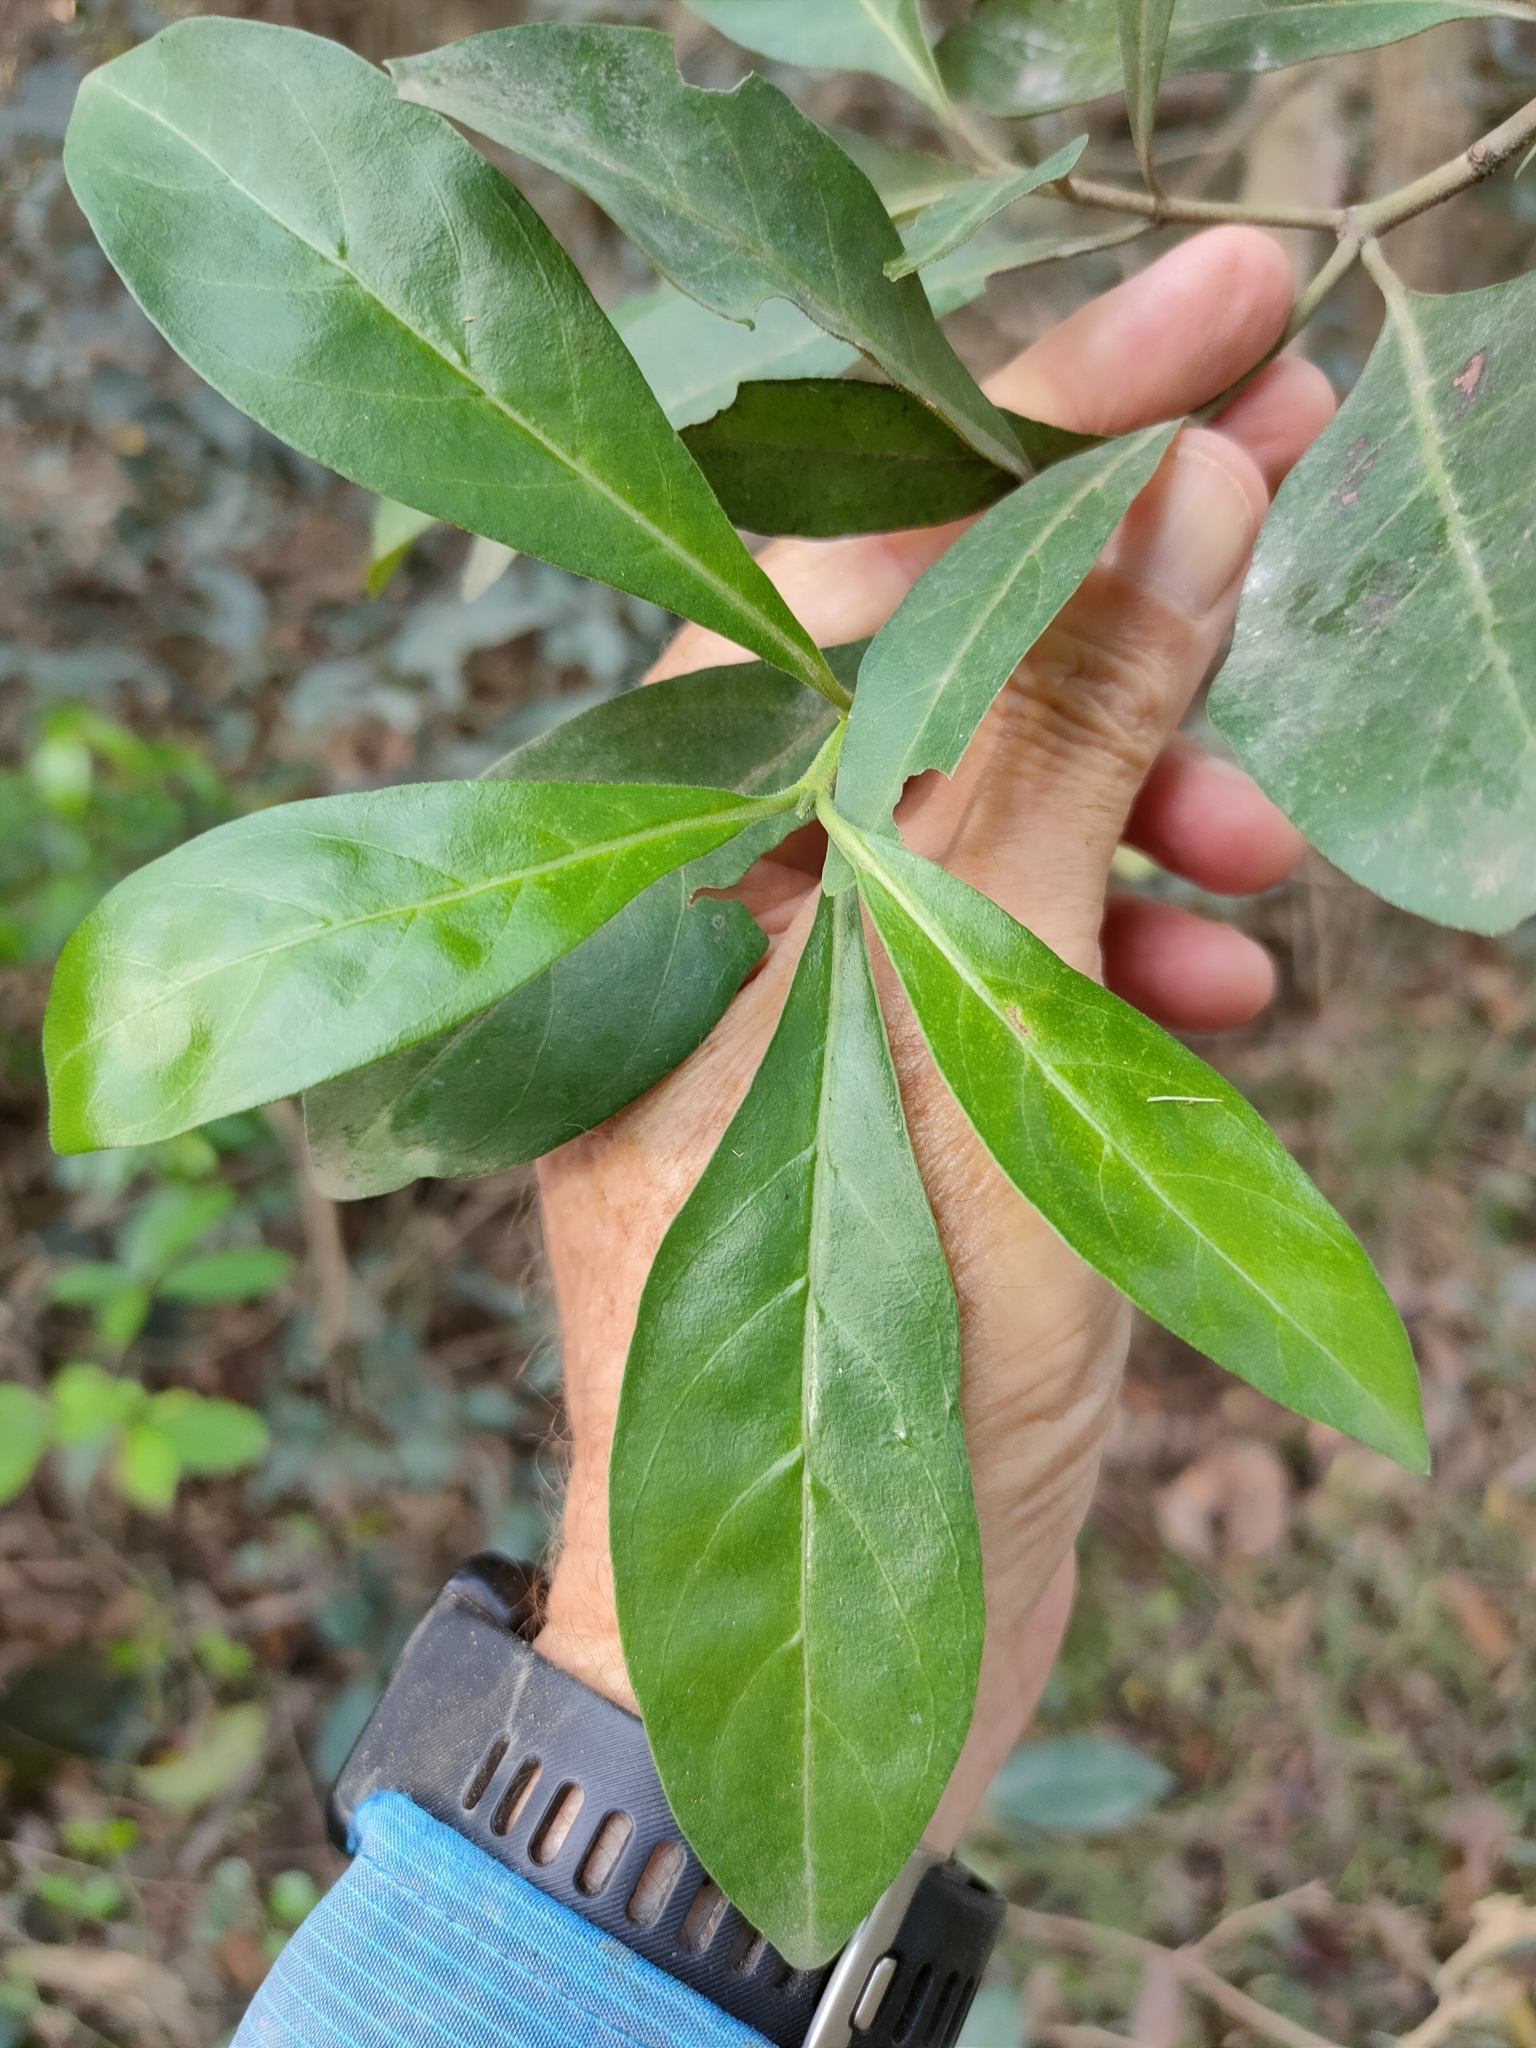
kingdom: Plantae
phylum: Tracheophyta
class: Magnoliopsida
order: Gentianales
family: Rubiaceae
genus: Psychotria
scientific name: Psychotria daphnoides
